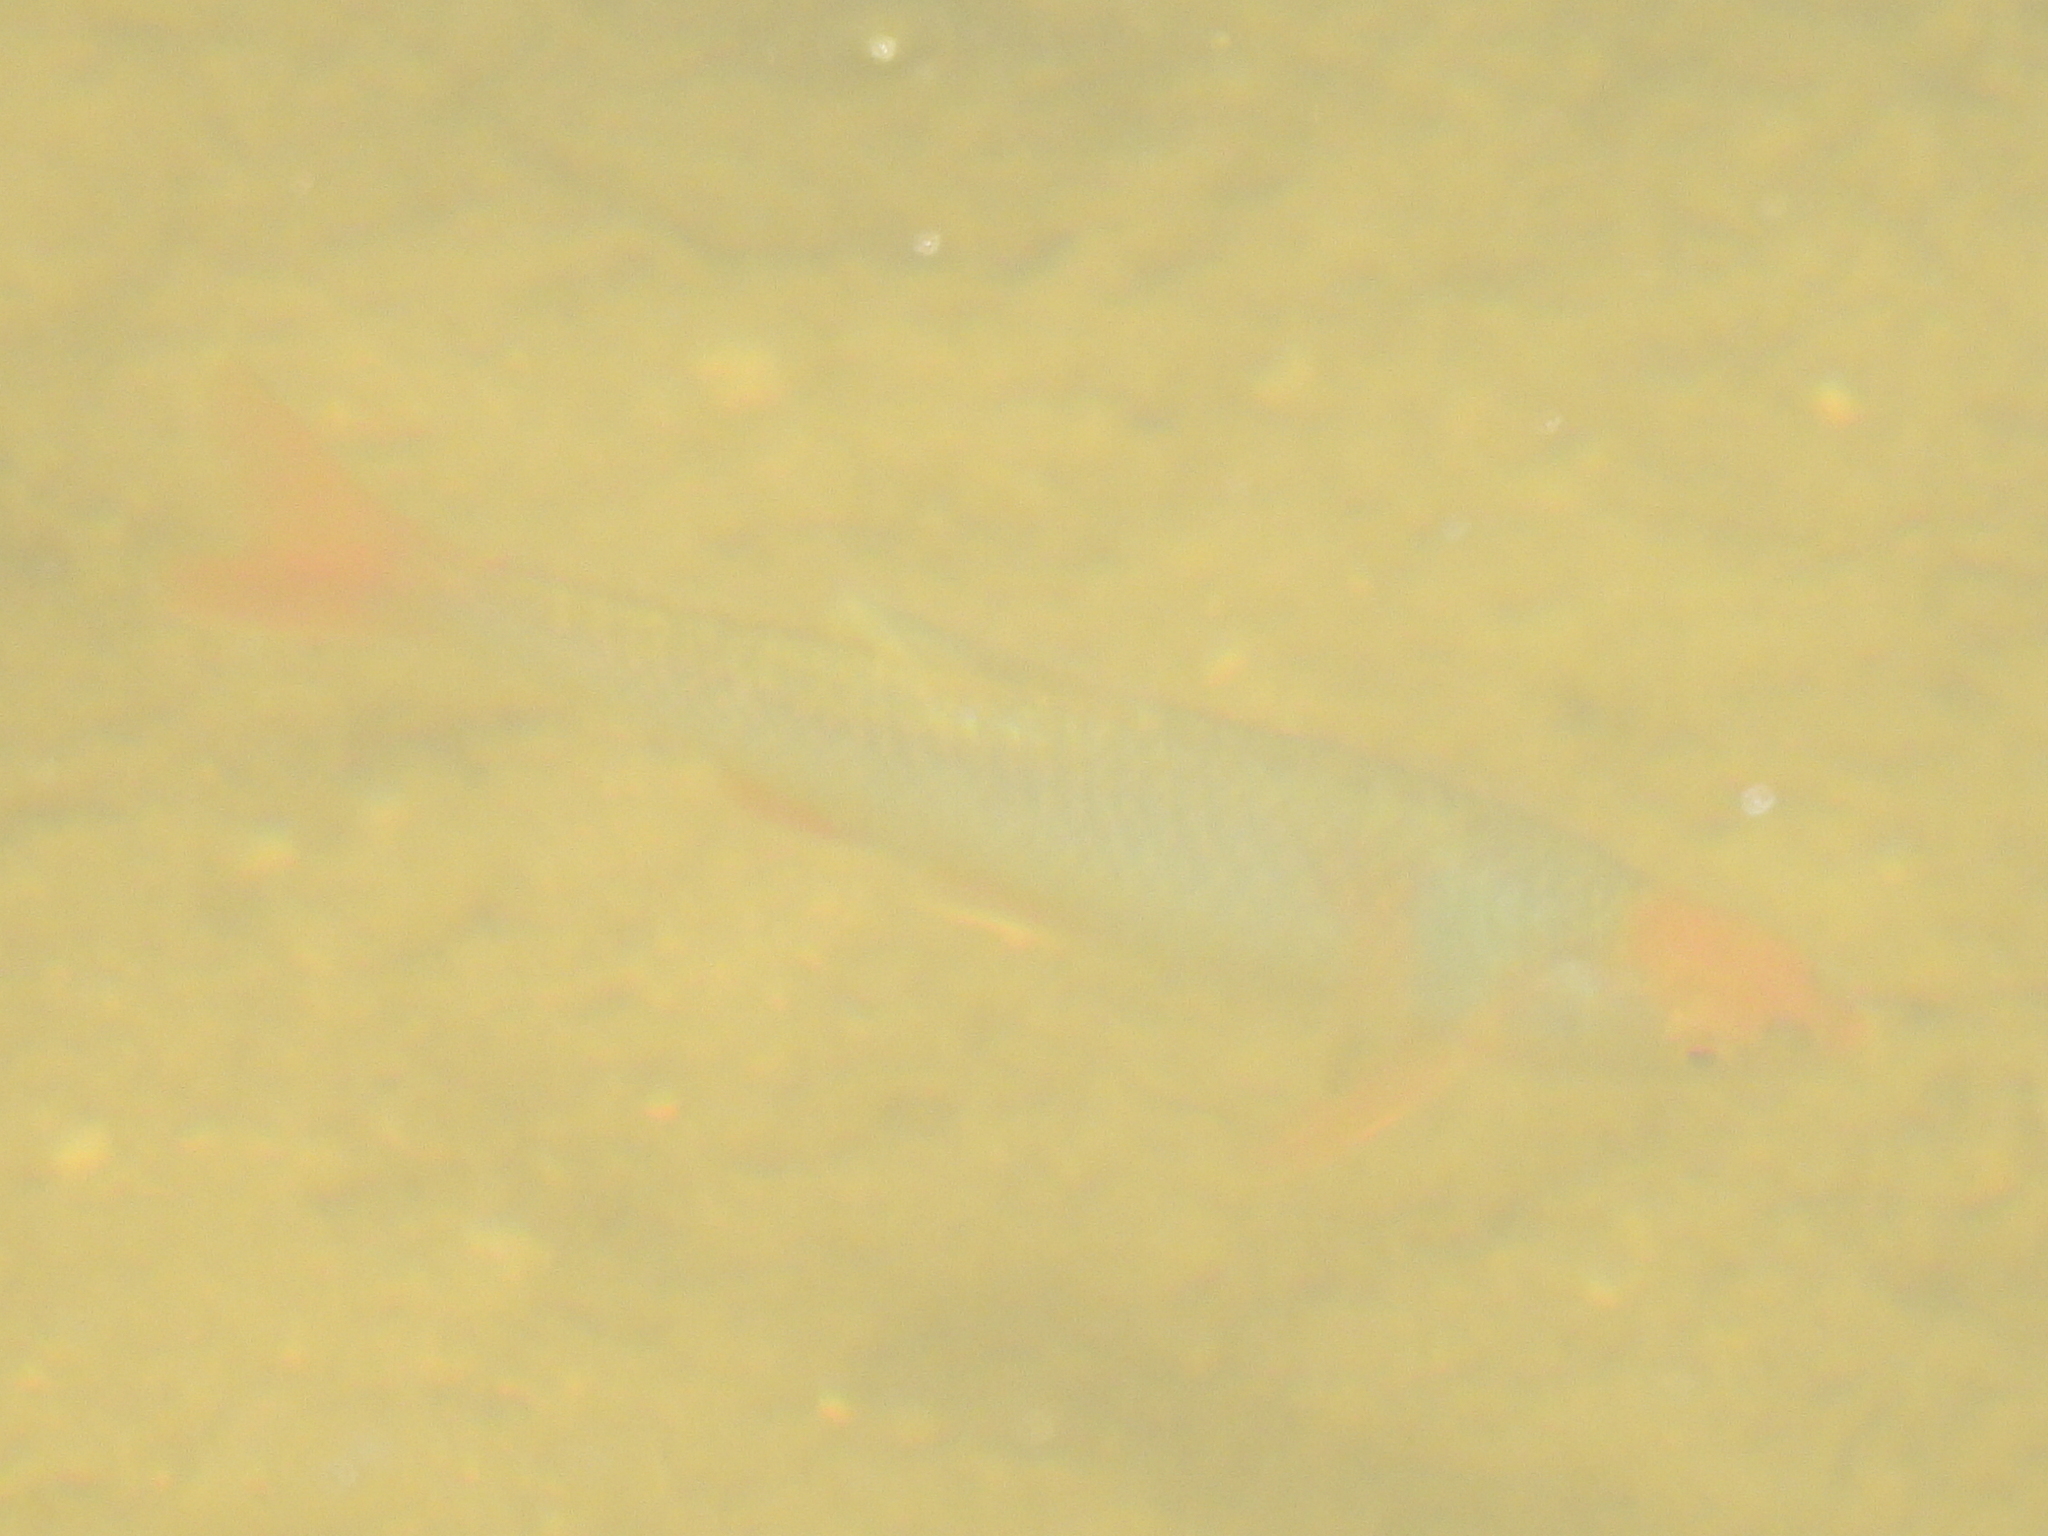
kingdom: Animalia
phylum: Chordata
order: Cypriniformes
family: Cyprinidae
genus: Cyprinella
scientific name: Cyprinella lutrensis
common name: Red shiner
